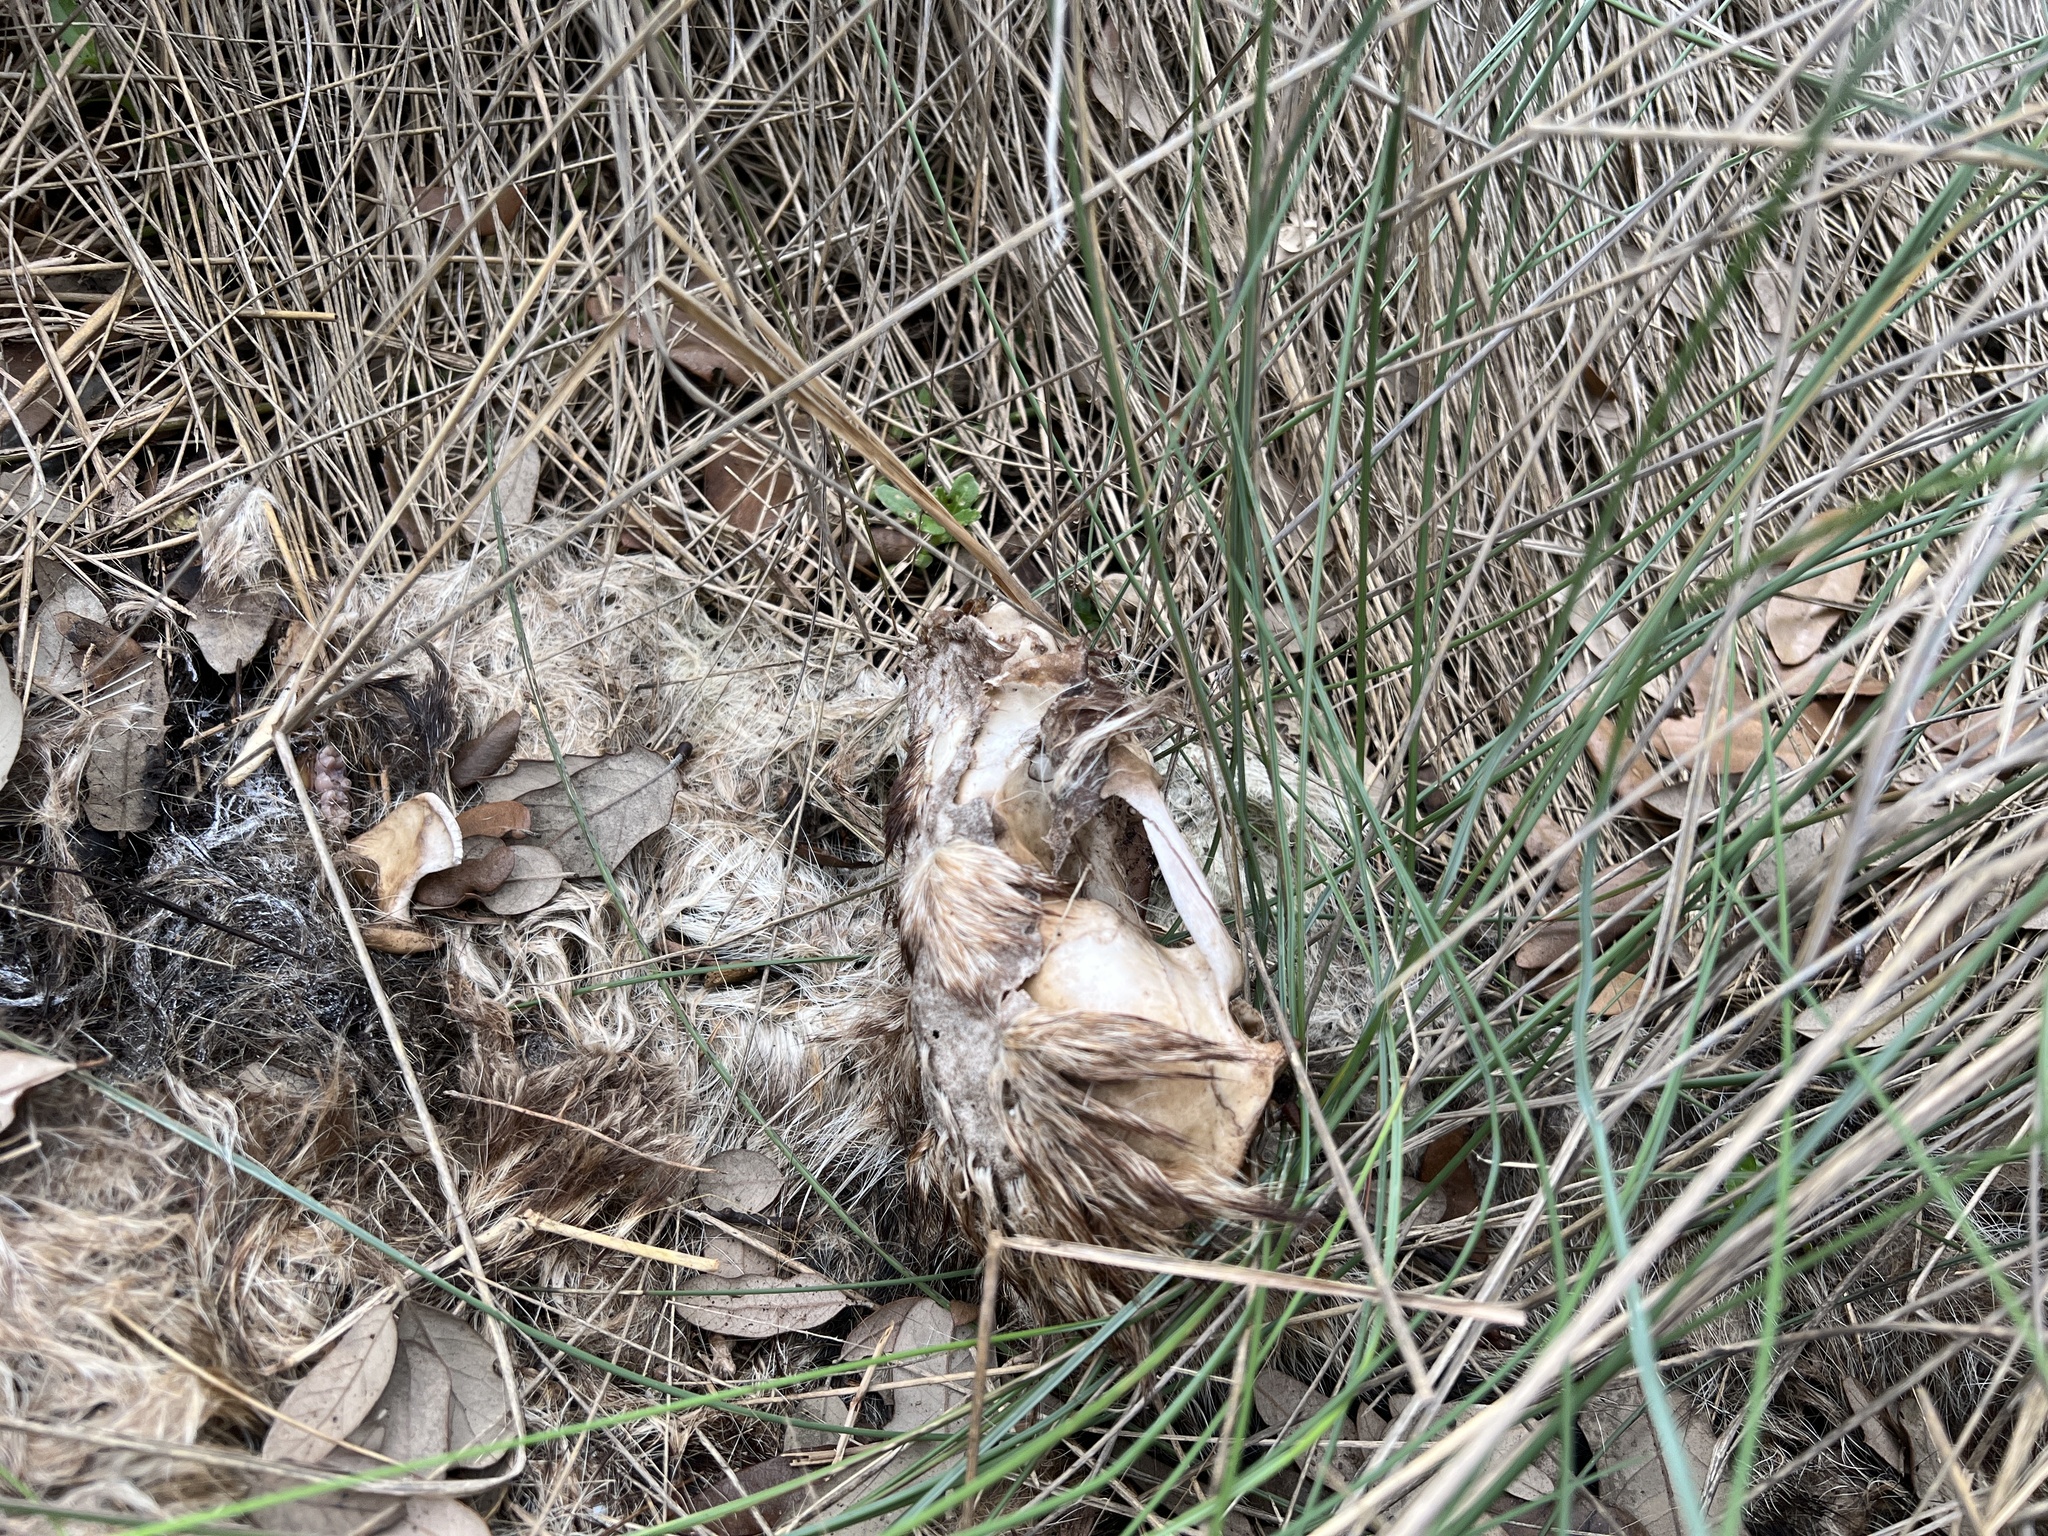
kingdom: Animalia
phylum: Chordata
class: Mammalia
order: Carnivora
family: Procyonidae
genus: Procyon
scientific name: Procyon lotor
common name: Raccoon
